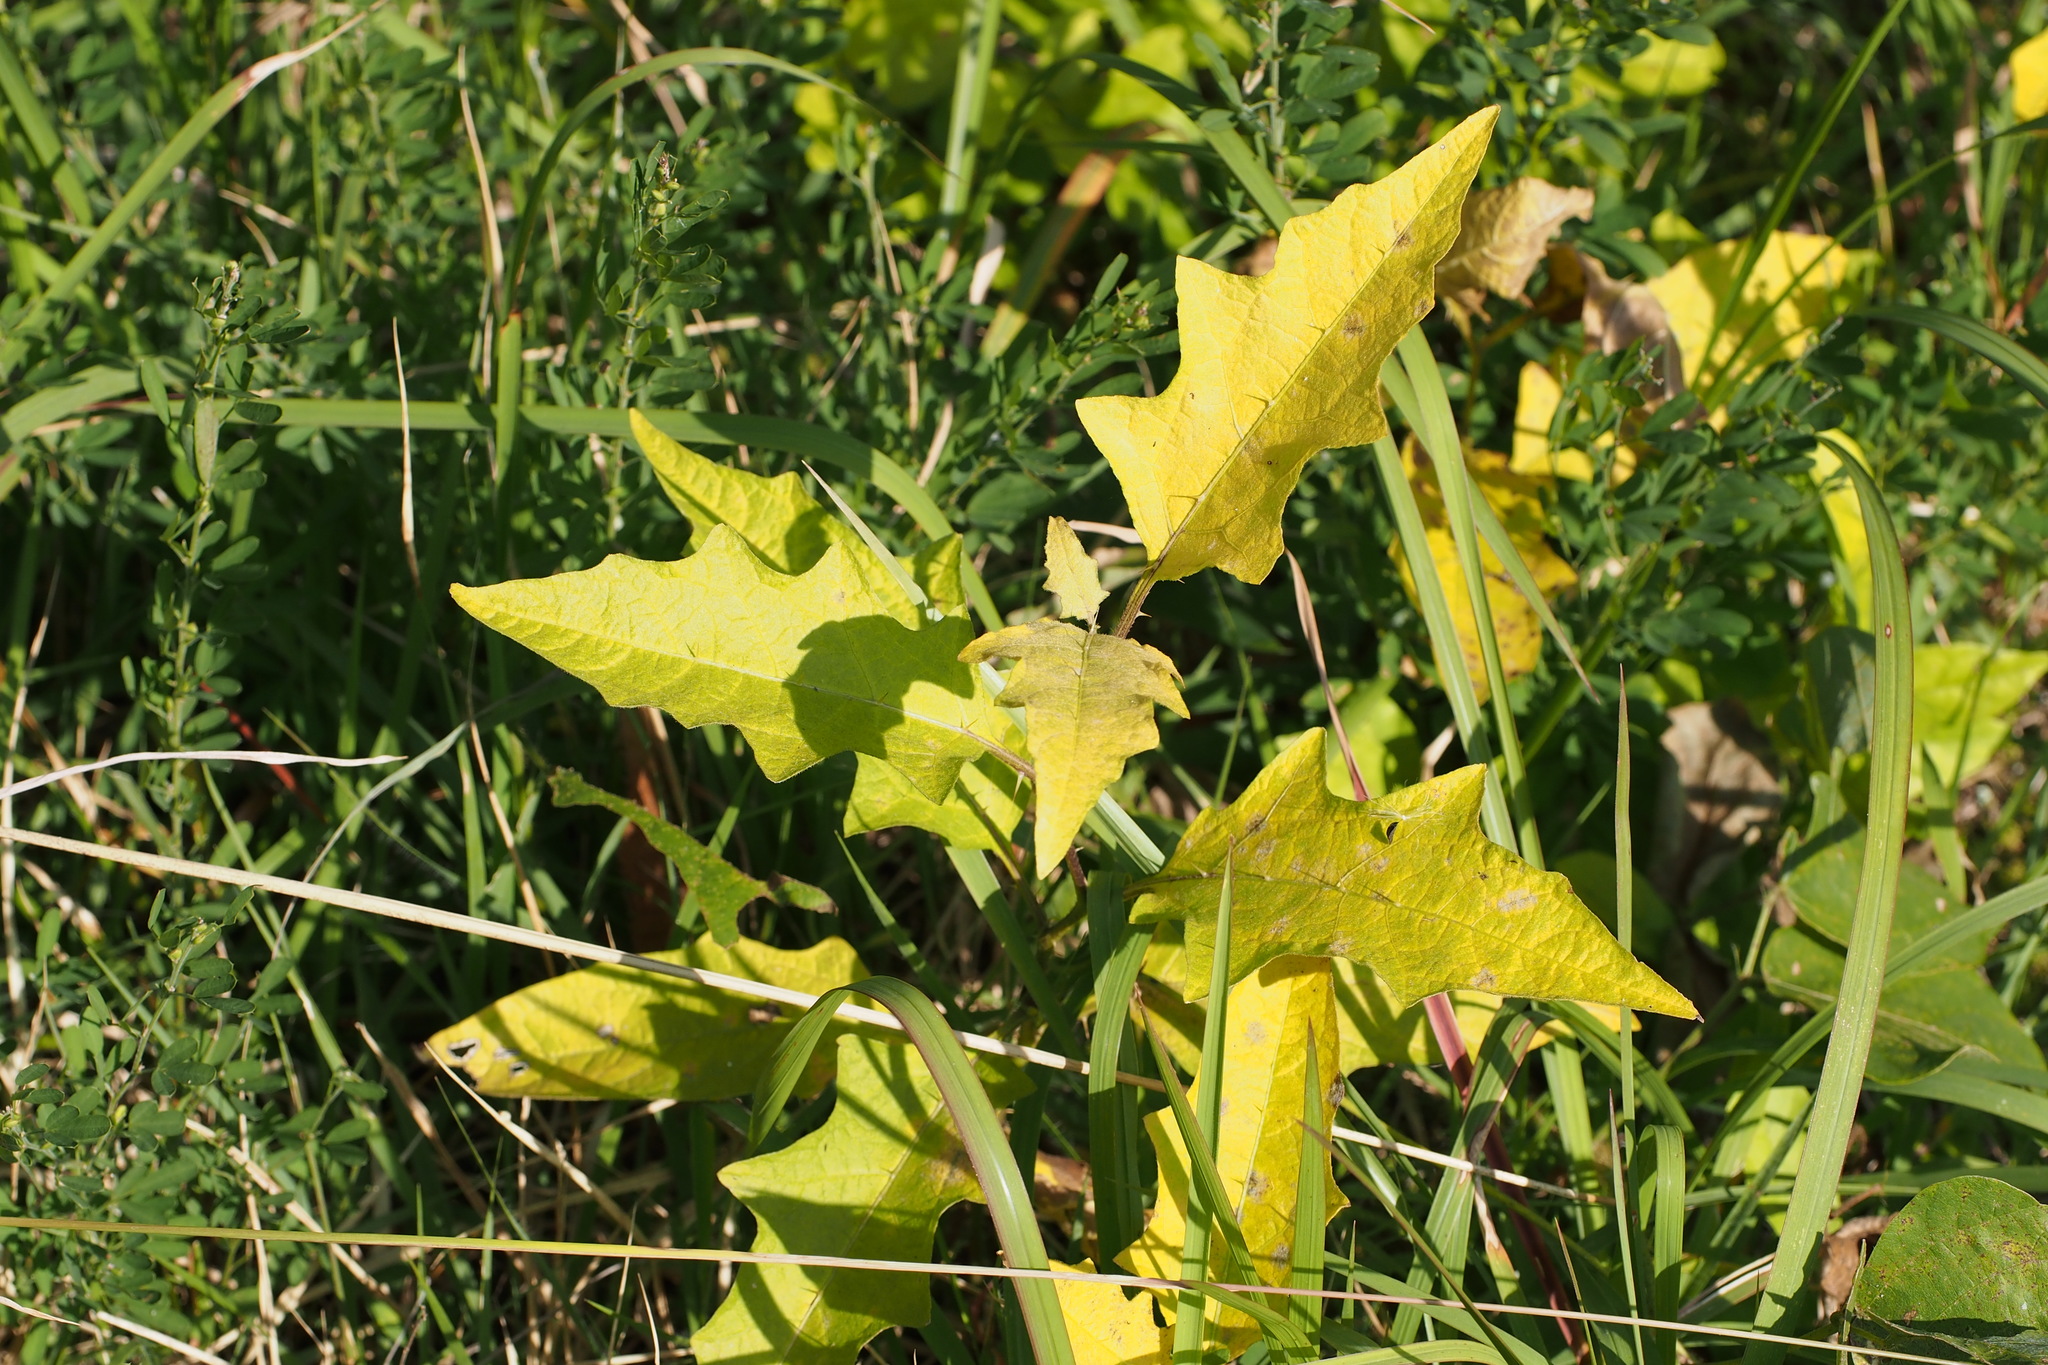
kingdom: Plantae
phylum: Tracheophyta
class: Magnoliopsida
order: Solanales
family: Solanaceae
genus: Solanum
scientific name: Solanum carolinense
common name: Horse-nettle
